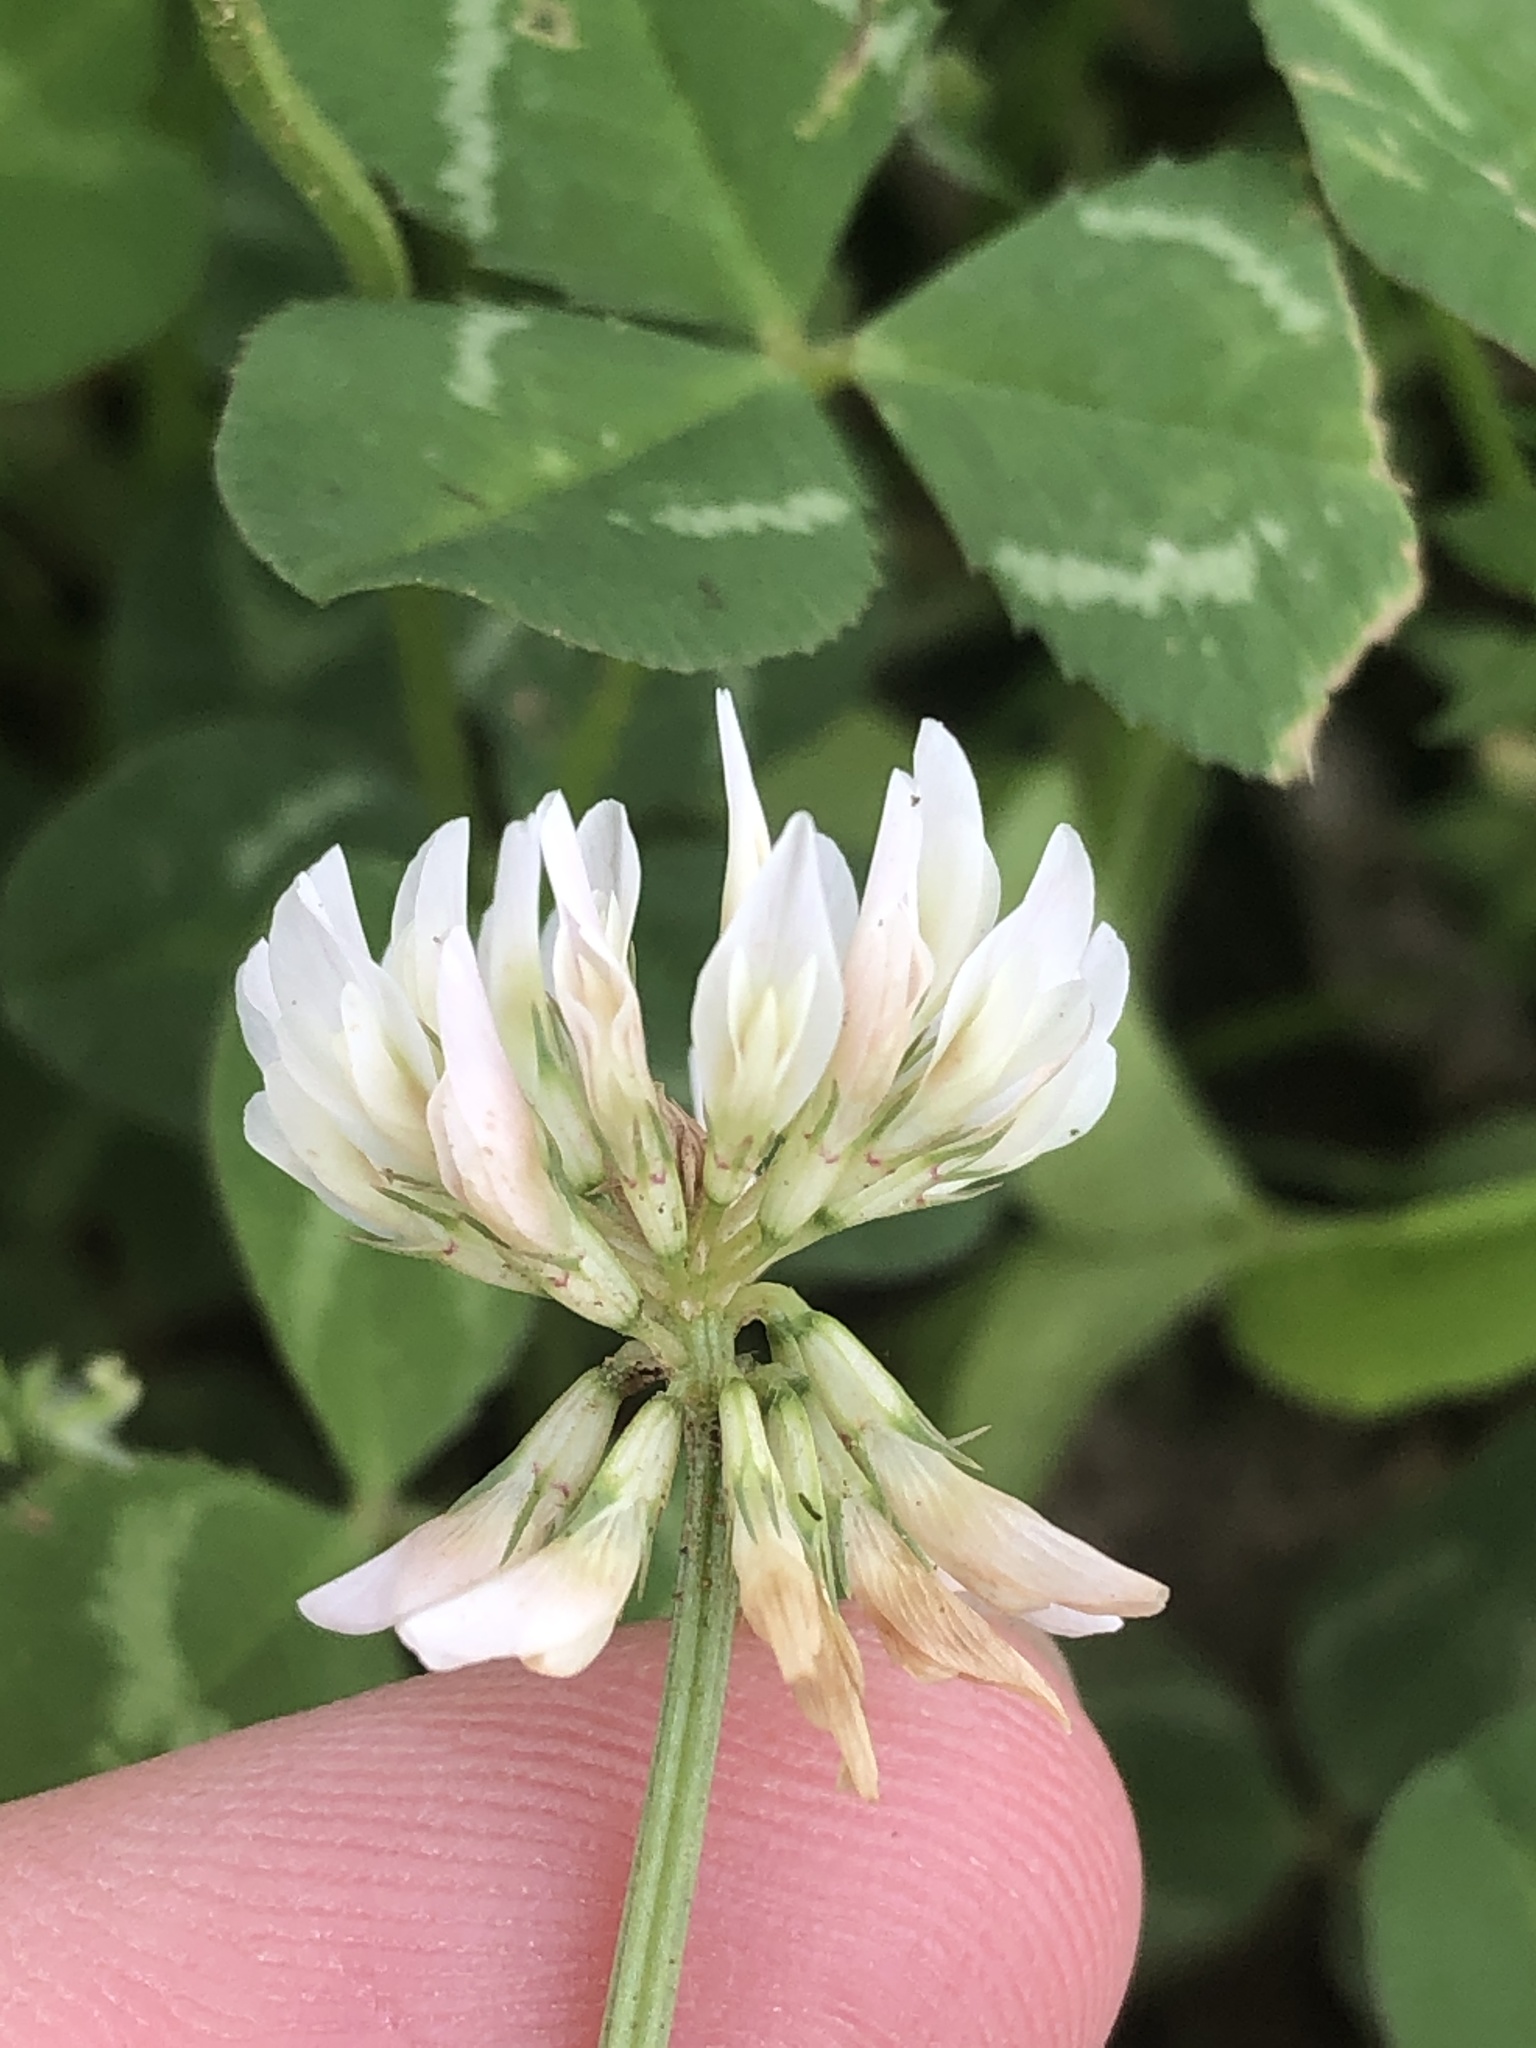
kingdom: Plantae
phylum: Tracheophyta
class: Magnoliopsida
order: Fabales
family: Fabaceae
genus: Trifolium
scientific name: Trifolium repens
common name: White clover
